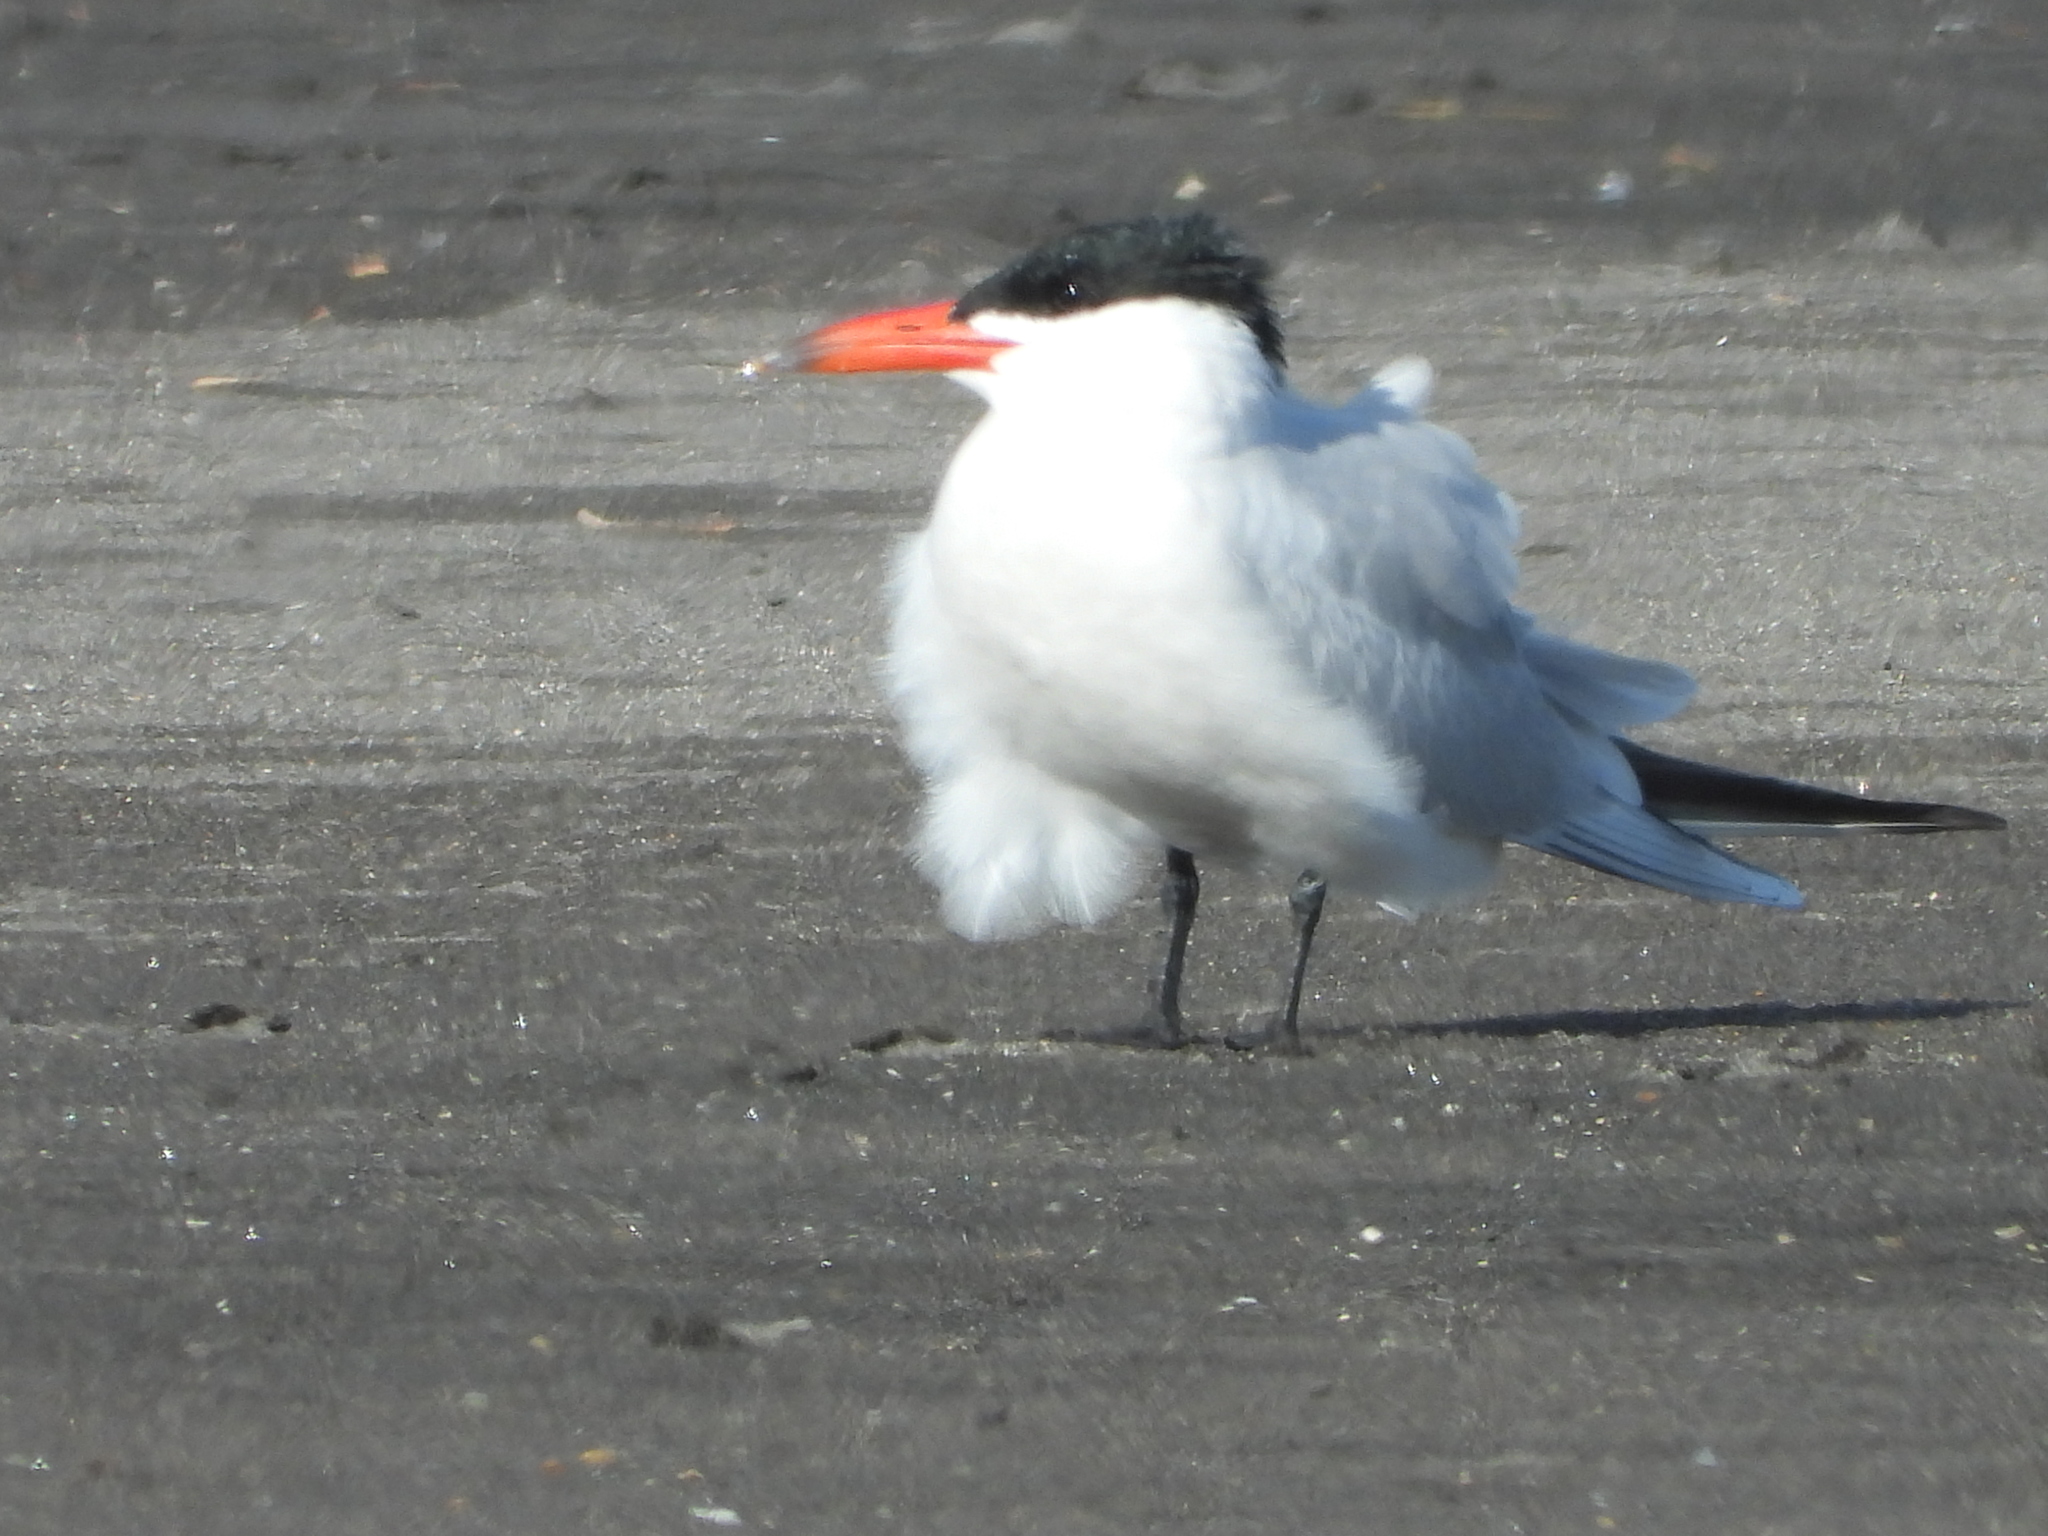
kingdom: Animalia
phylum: Chordata
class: Aves
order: Charadriiformes
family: Laridae
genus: Hydroprogne
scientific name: Hydroprogne caspia
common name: Caspian tern
